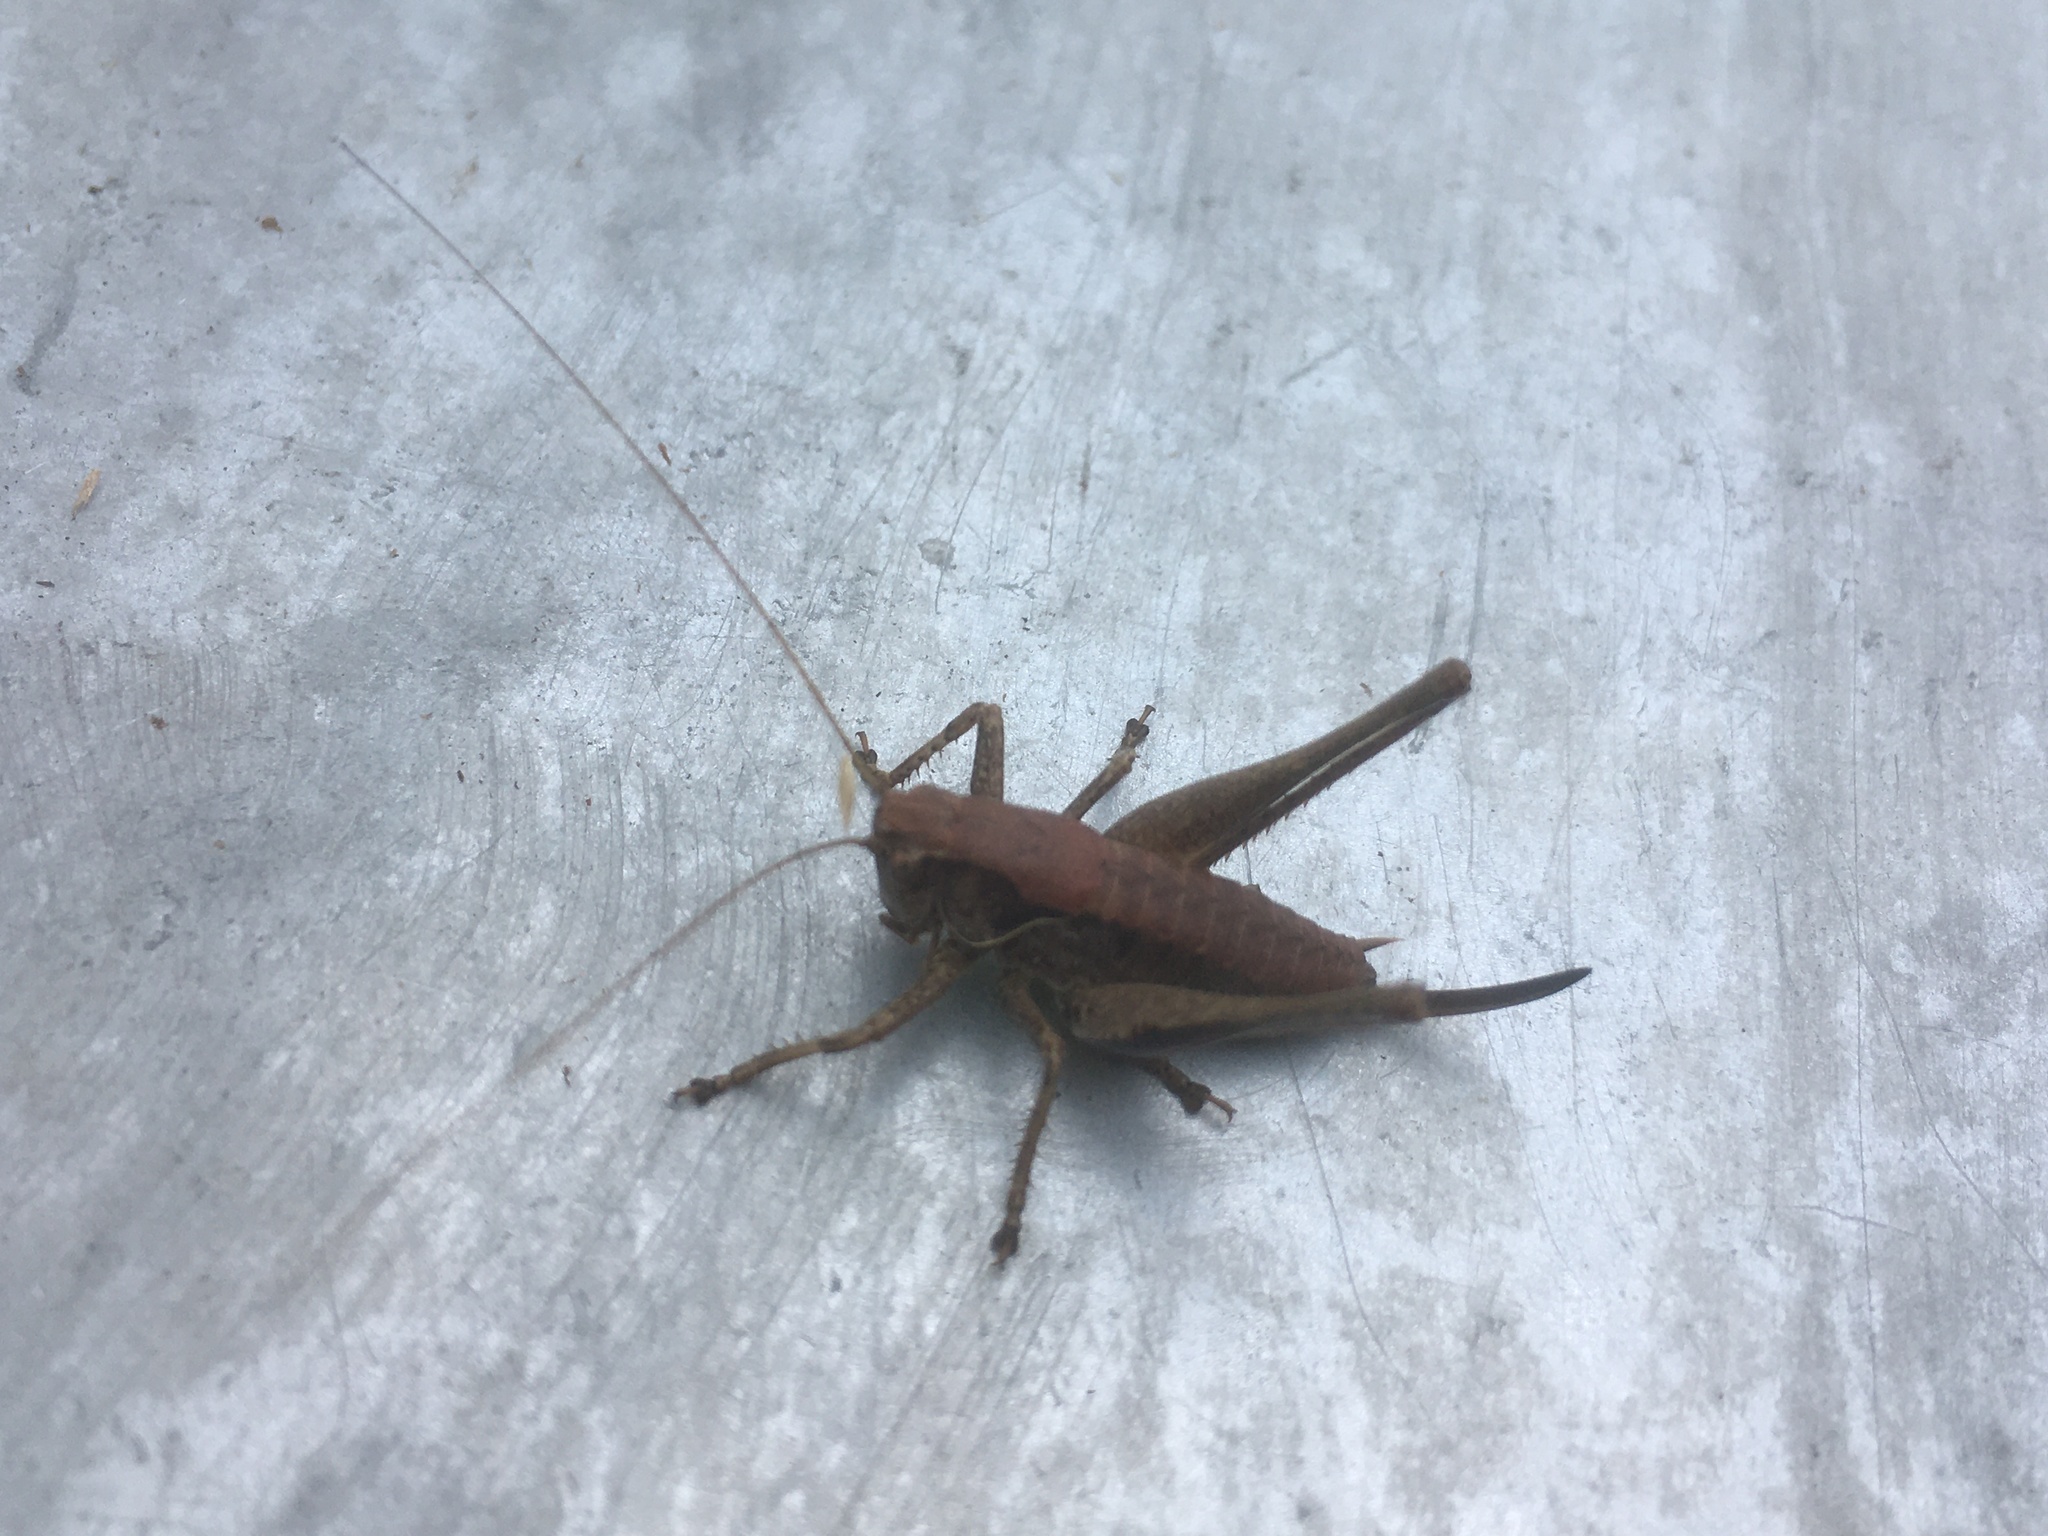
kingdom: Animalia
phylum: Arthropoda
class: Insecta
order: Orthoptera
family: Tettigoniidae
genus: Pholidoptera
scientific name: Pholidoptera griseoaptera
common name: Dark bush-cricket
